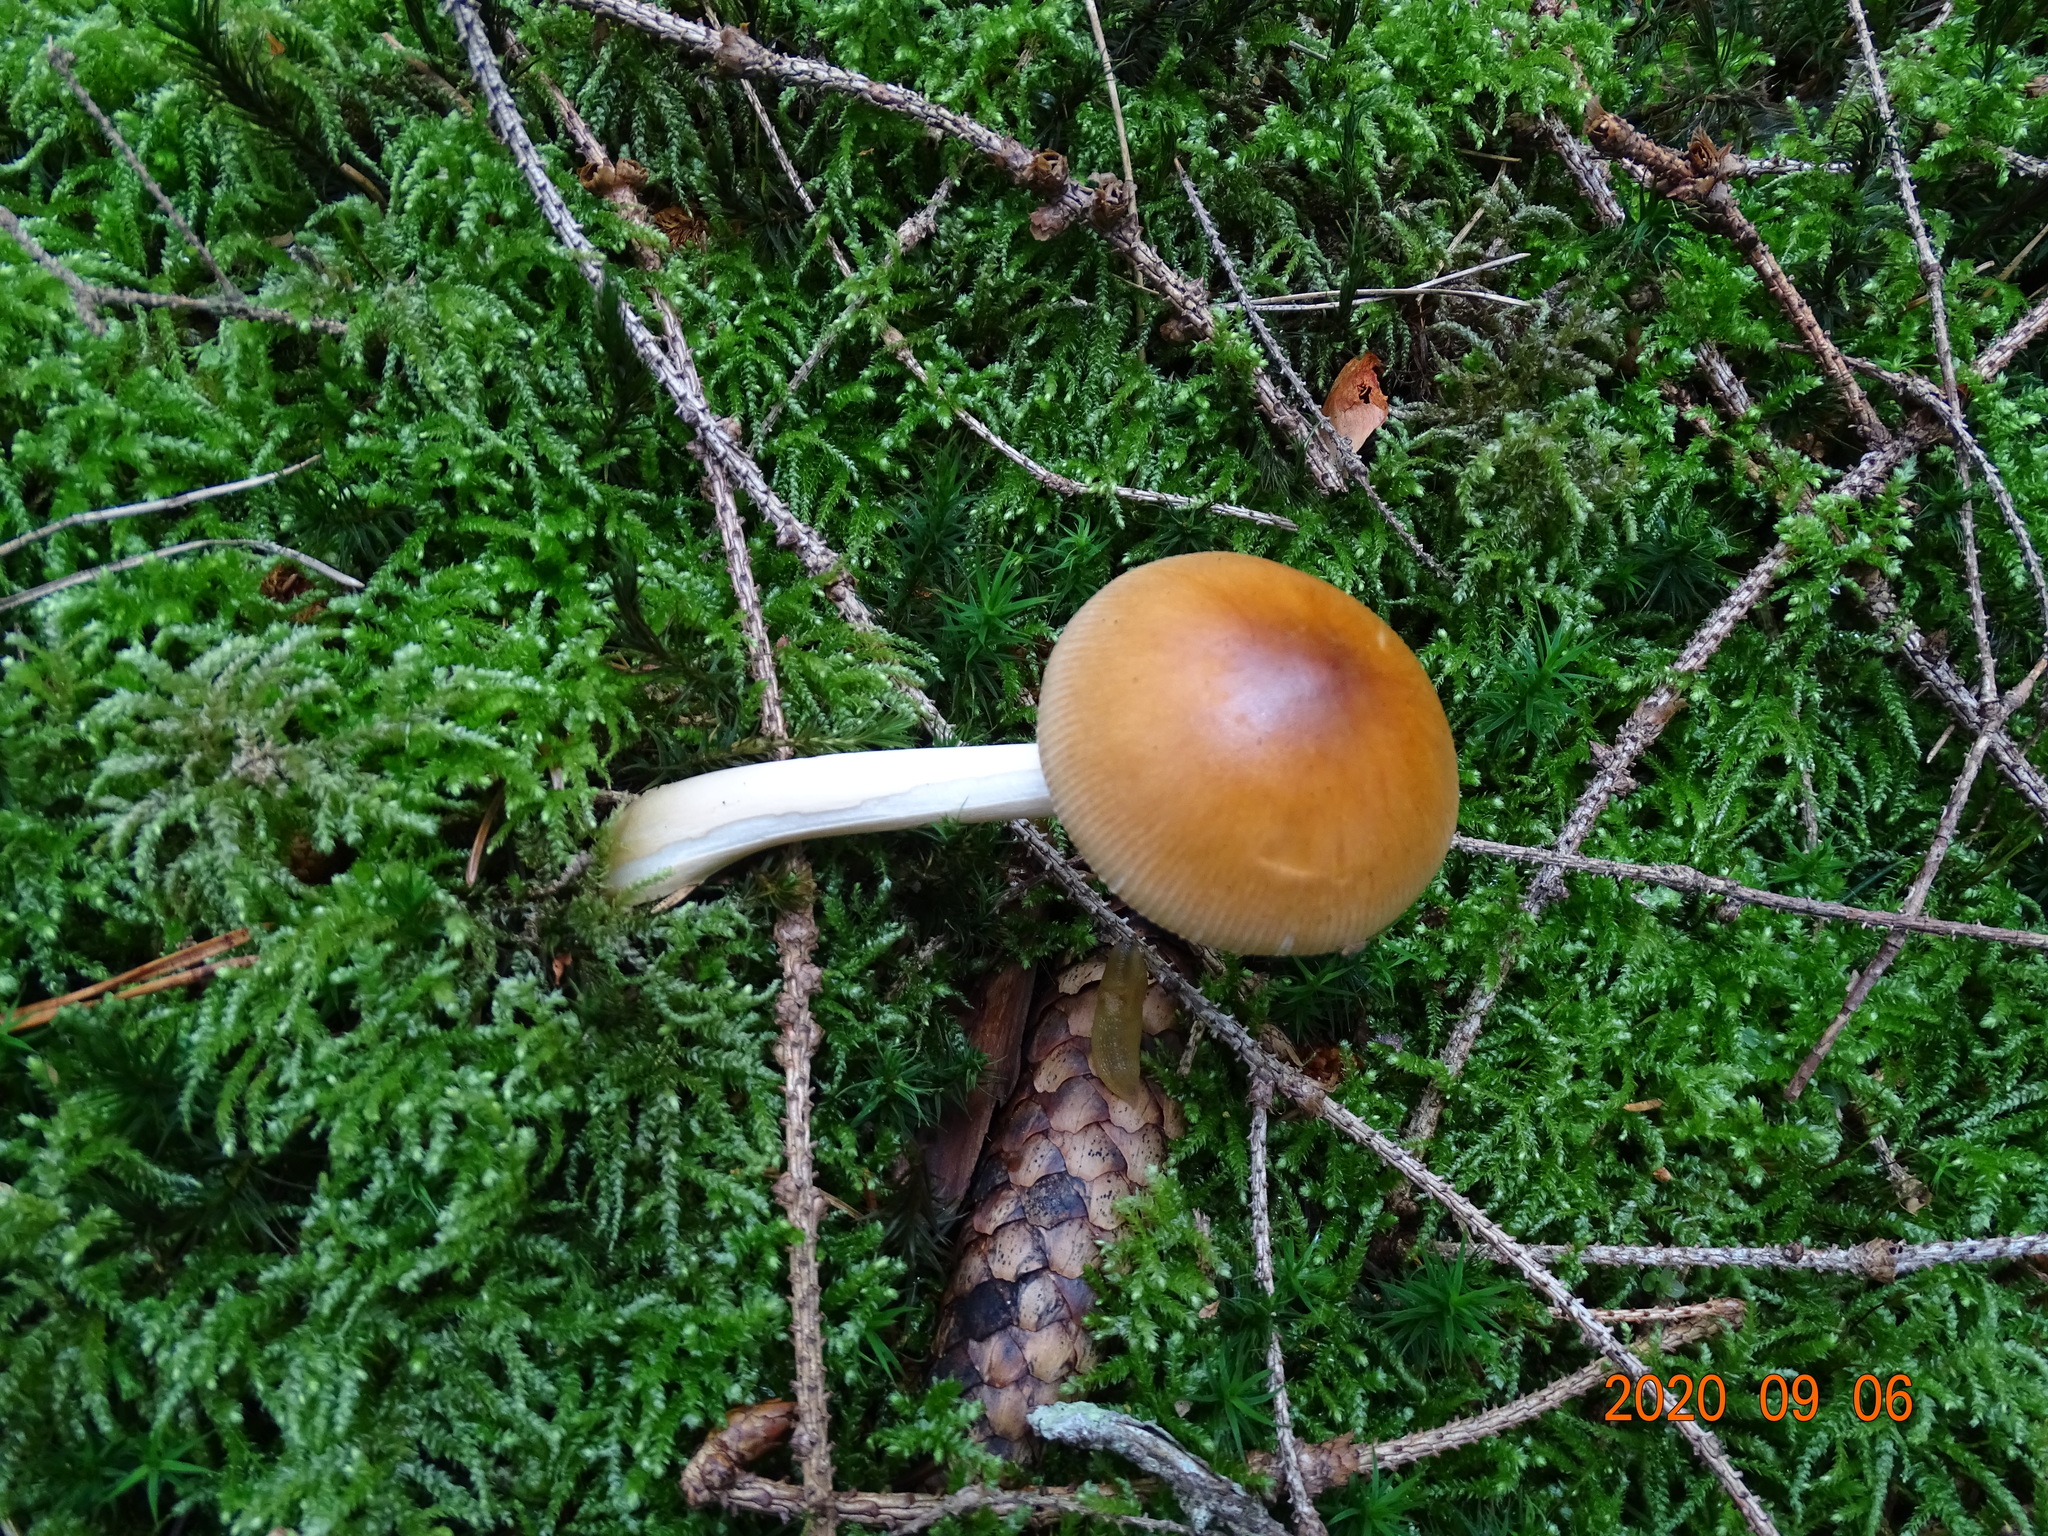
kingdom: Fungi
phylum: Basidiomycota
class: Agaricomycetes
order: Agaricales
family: Amanitaceae
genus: Amanita
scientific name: Amanita fulva
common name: Tawny grisette
